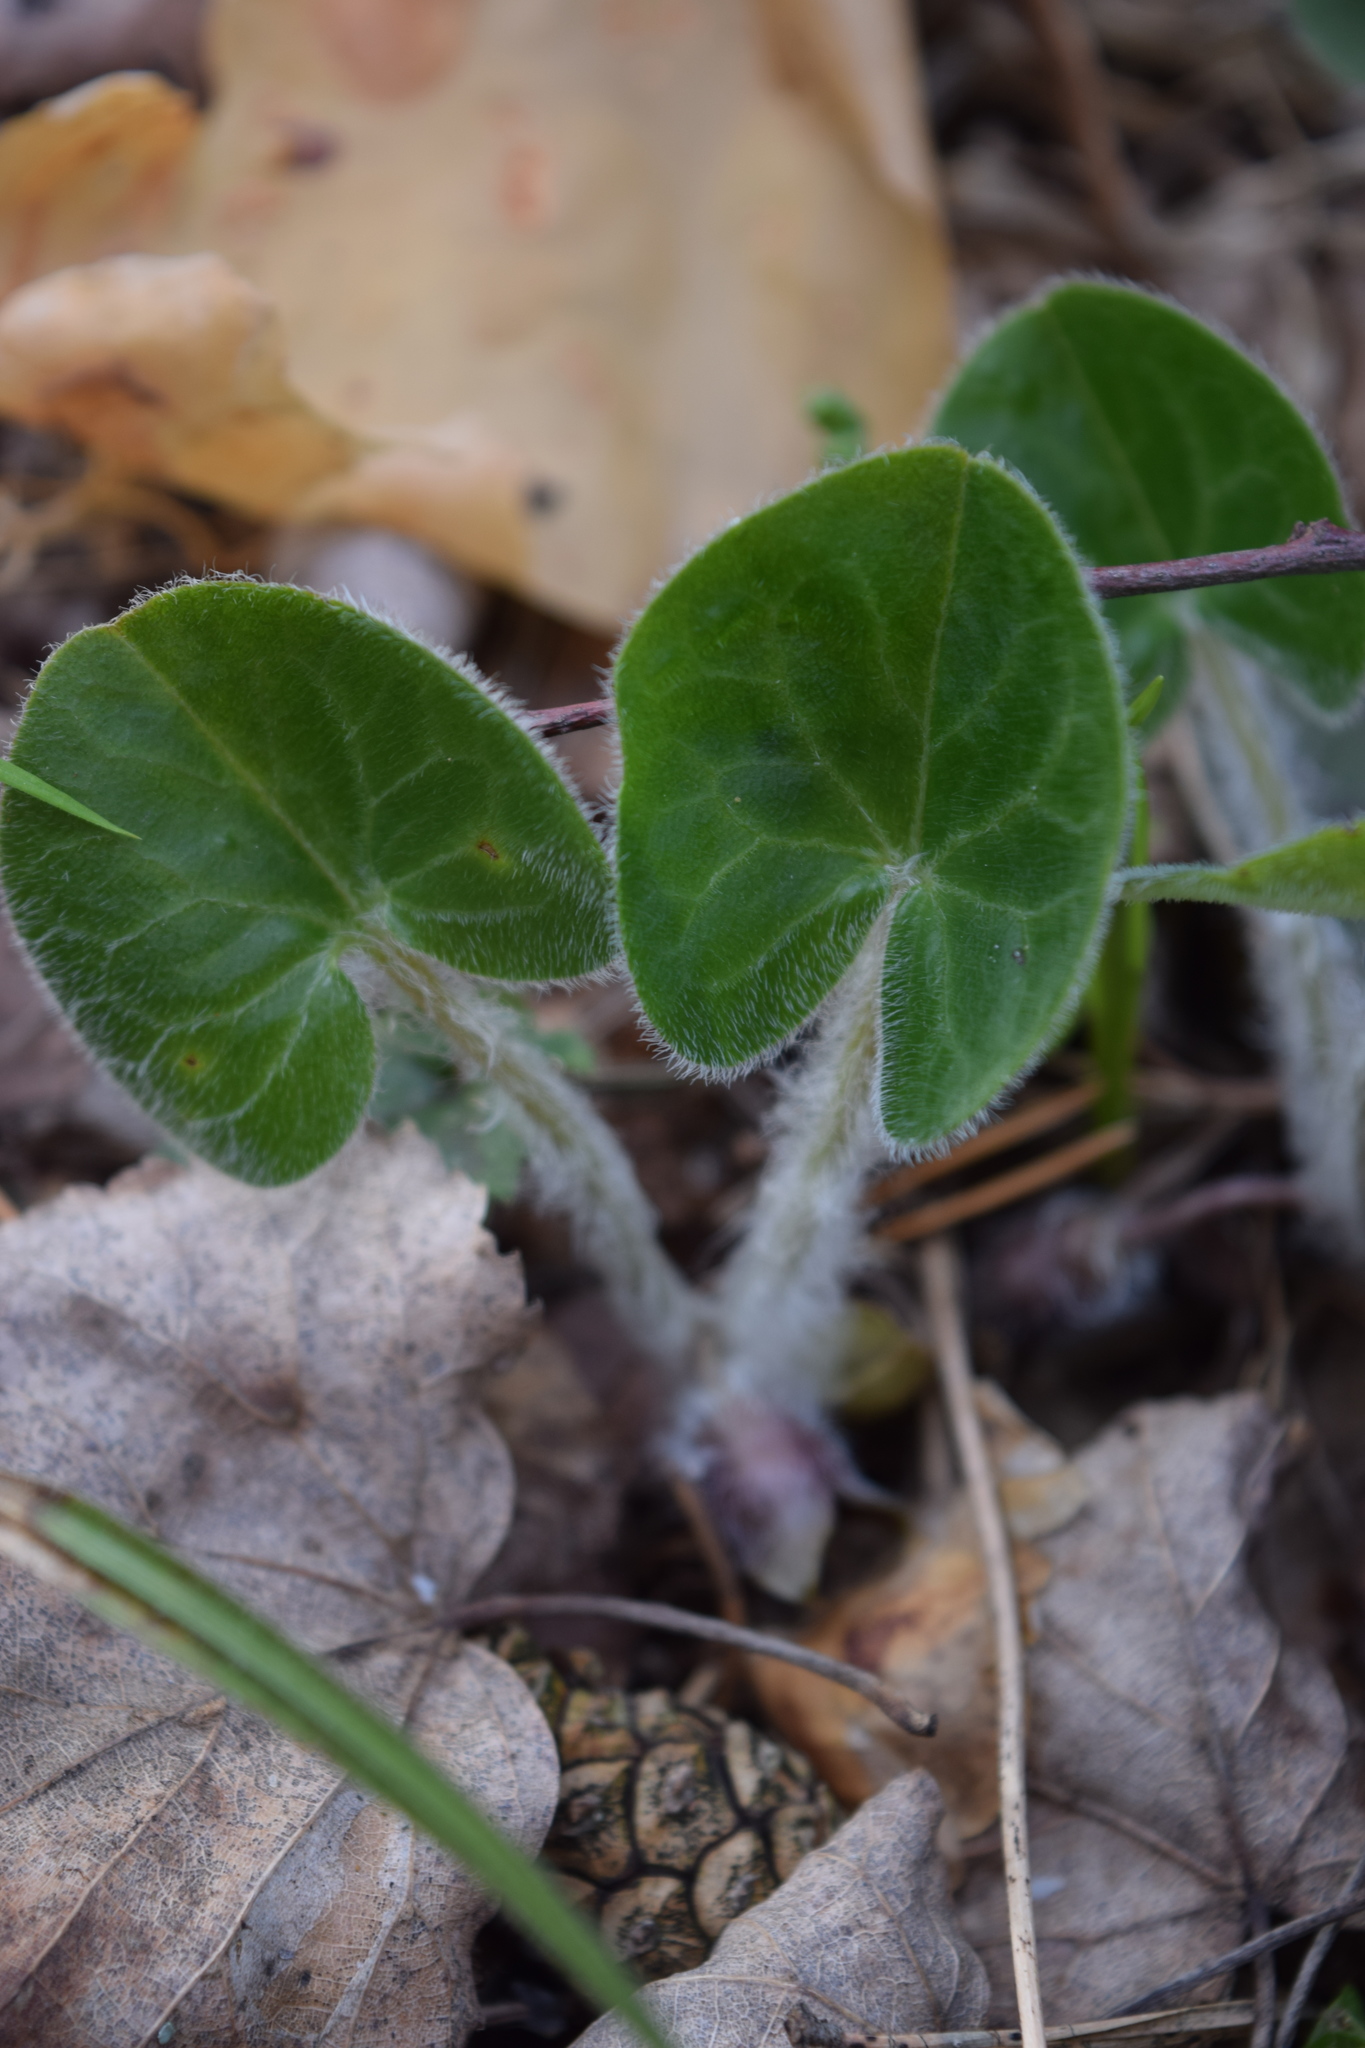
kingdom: Plantae
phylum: Tracheophyta
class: Magnoliopsida
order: Piperales
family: Aristolochiaceae
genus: Asarum
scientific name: Asarum europaeum
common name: Asarabacca
